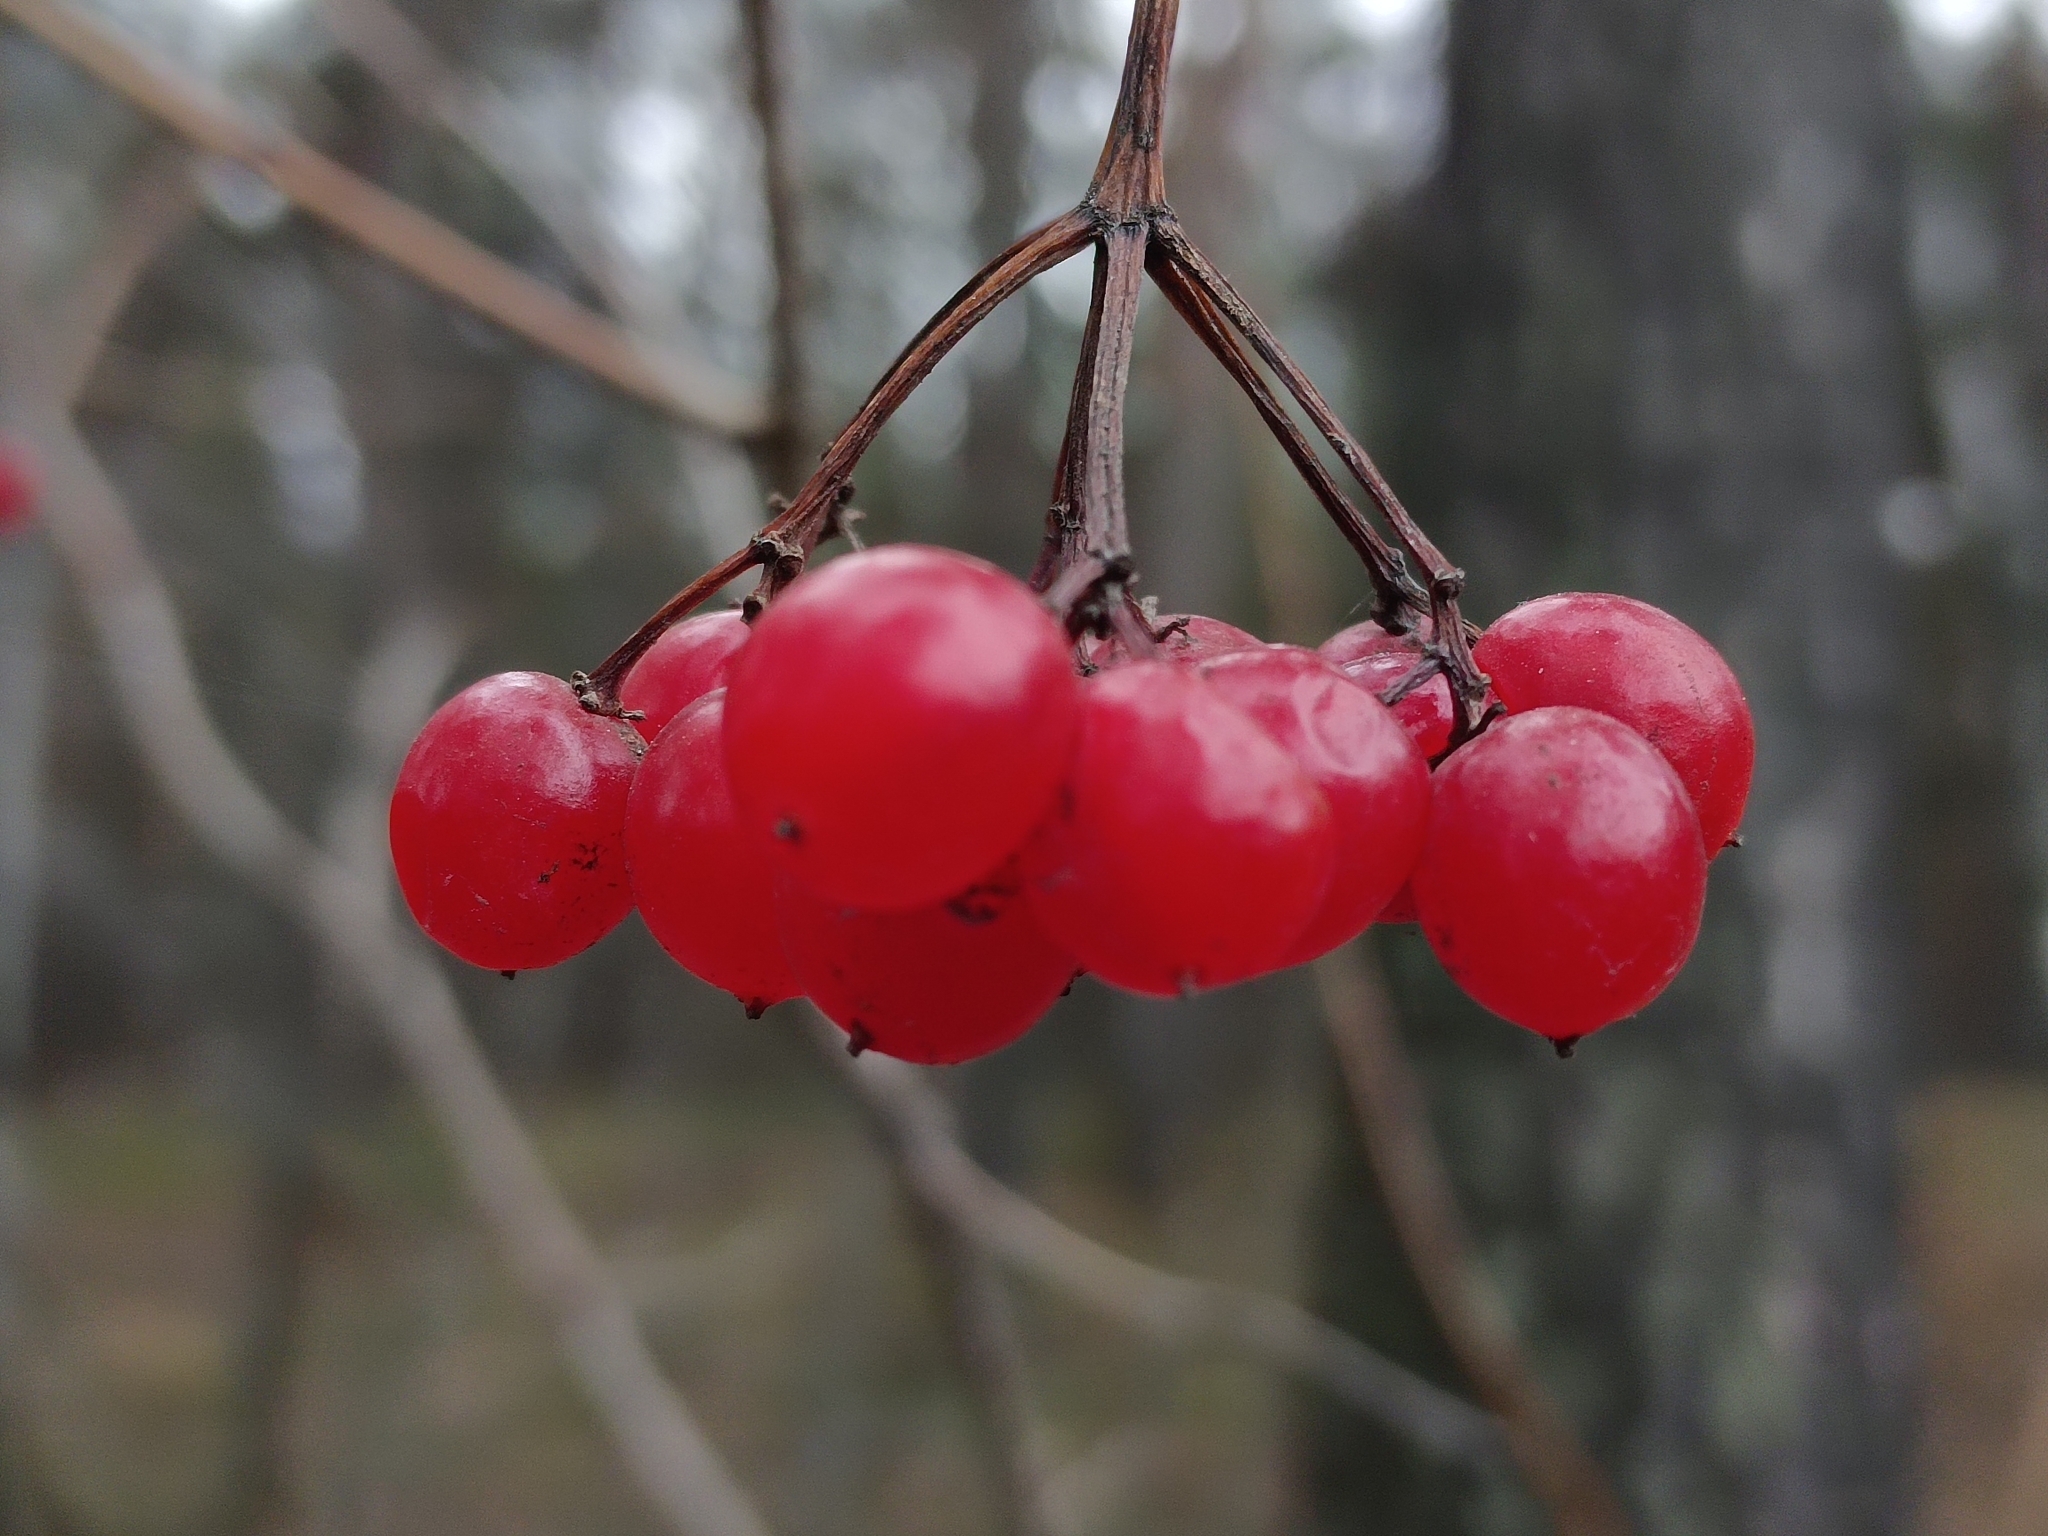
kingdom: Plantae
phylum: Tracheophyta
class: Magnoliopsida
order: Dipsacales
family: Viburnaceae
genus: Viburnum
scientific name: Viburnum opulus
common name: Guelder-rose
